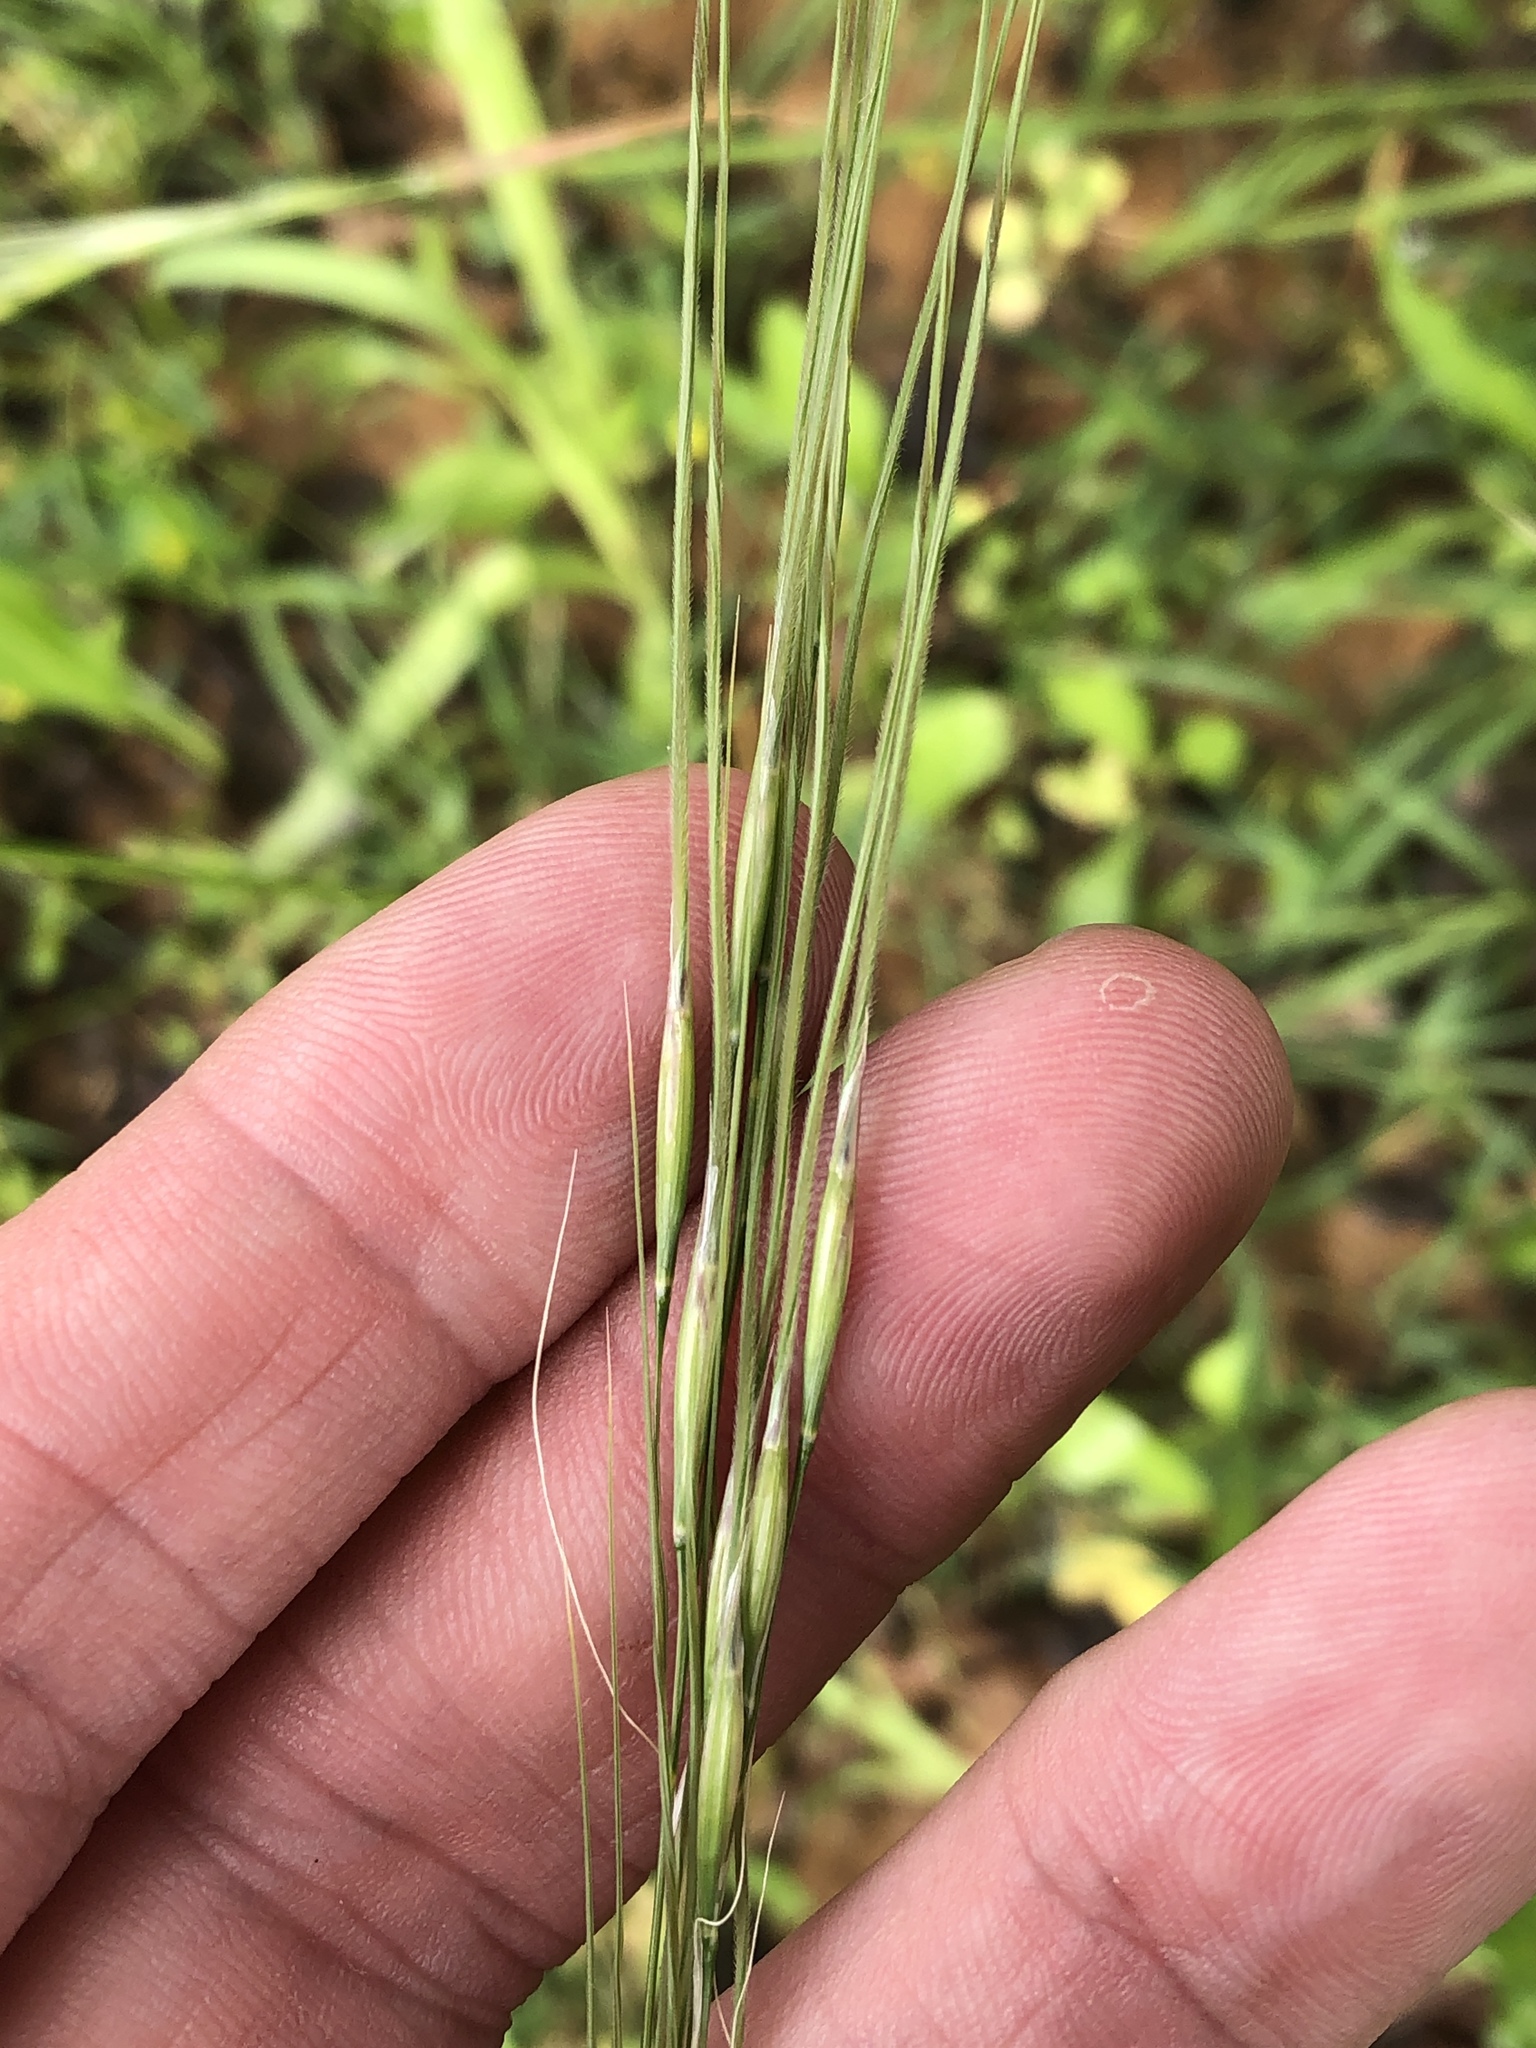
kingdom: Plantae
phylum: Tracheophyta
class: Liliopsida
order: Poales
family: Poaceae
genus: Nassella
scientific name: Nassella leucotricha
